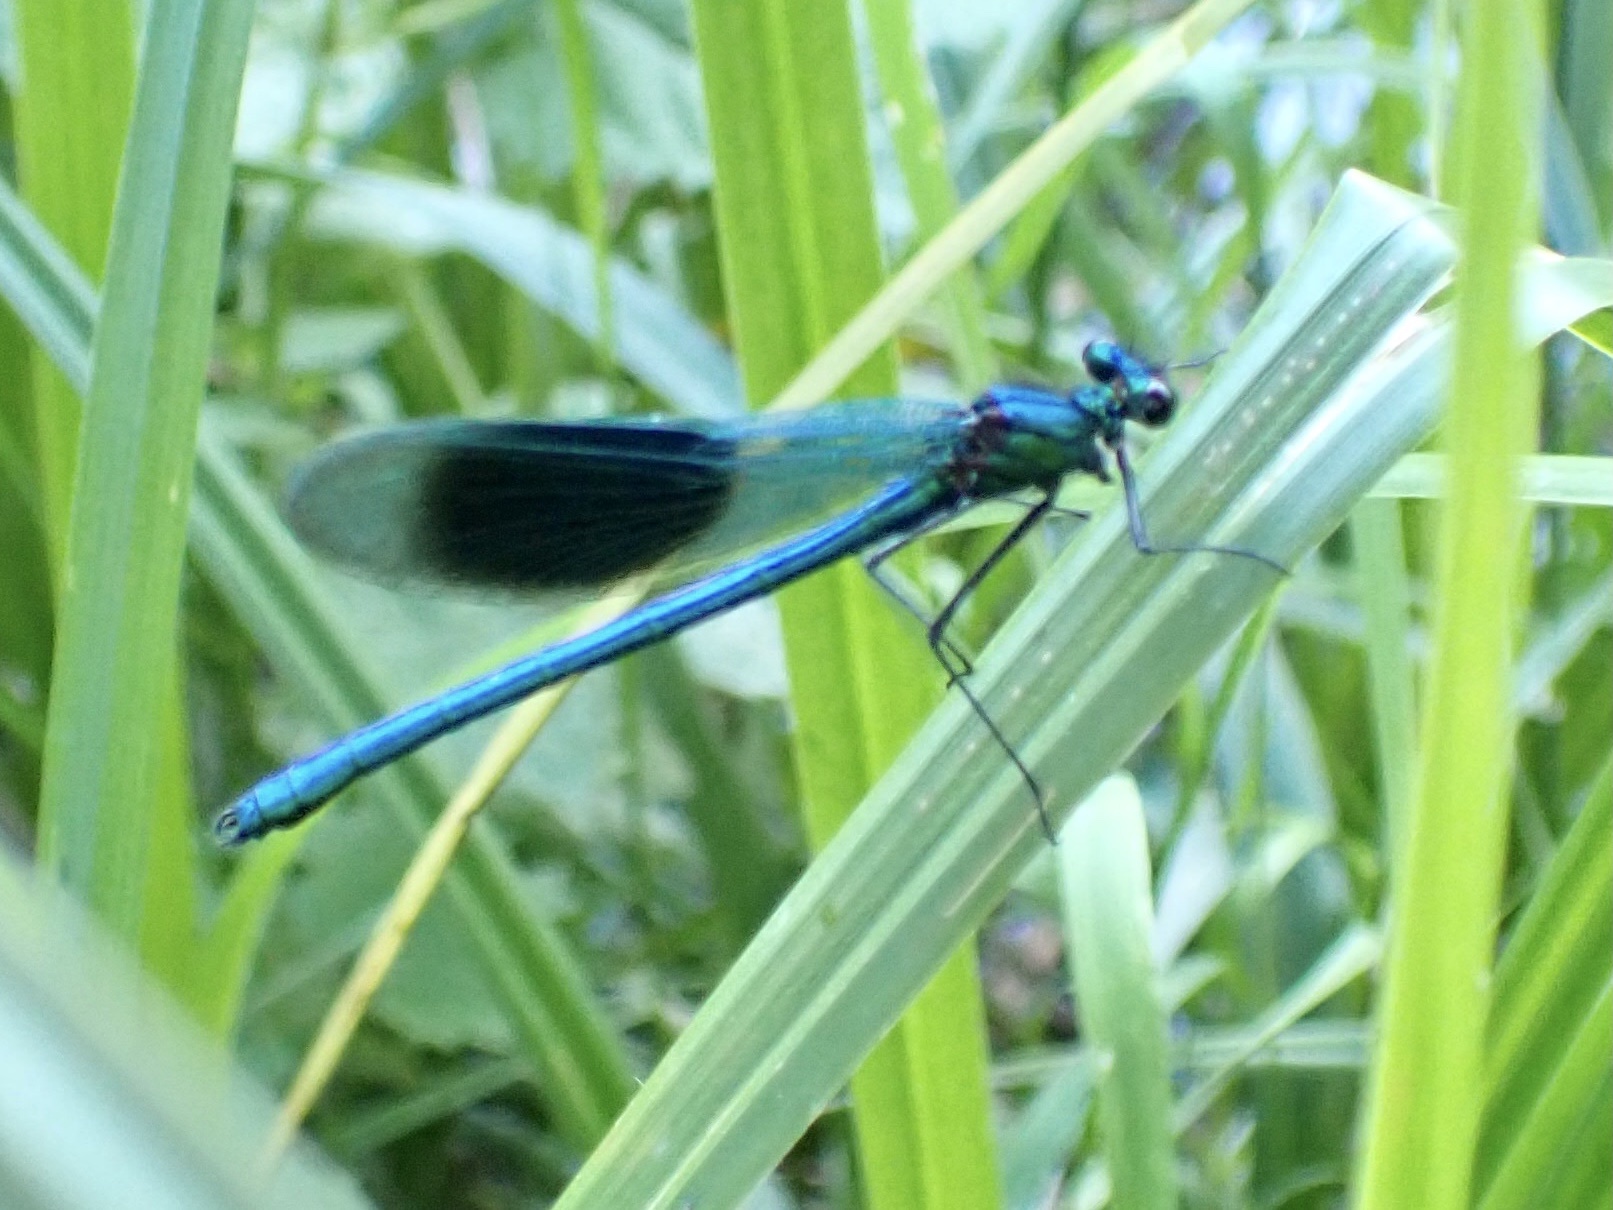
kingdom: Animalia
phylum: Arthropoda
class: Insecta
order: Odonata
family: Calopterygidae
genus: Calopteryx
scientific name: Calopteryx splendens
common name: Banded demoiselle
